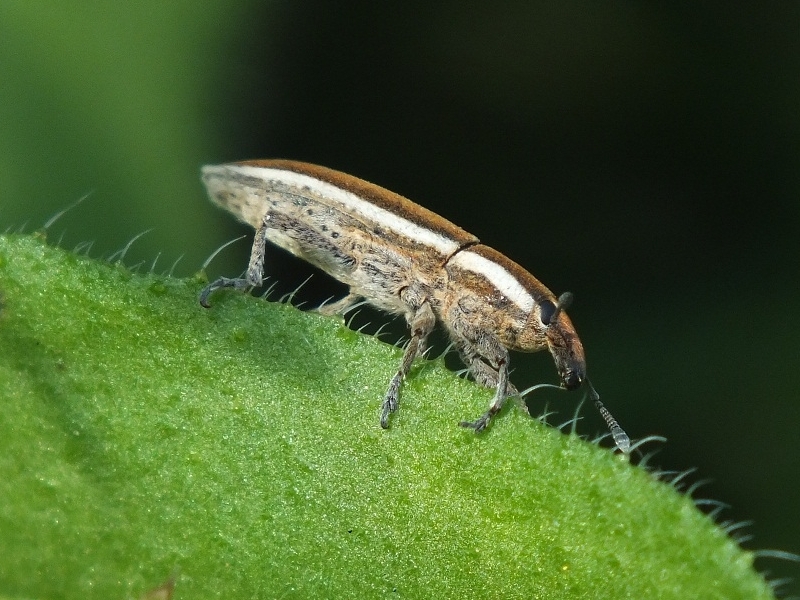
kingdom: Animalia
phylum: Arthropoda
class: Insecta
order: Coleoptera
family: Curculionidae
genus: Lixus
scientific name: Lixus albomarginatus
